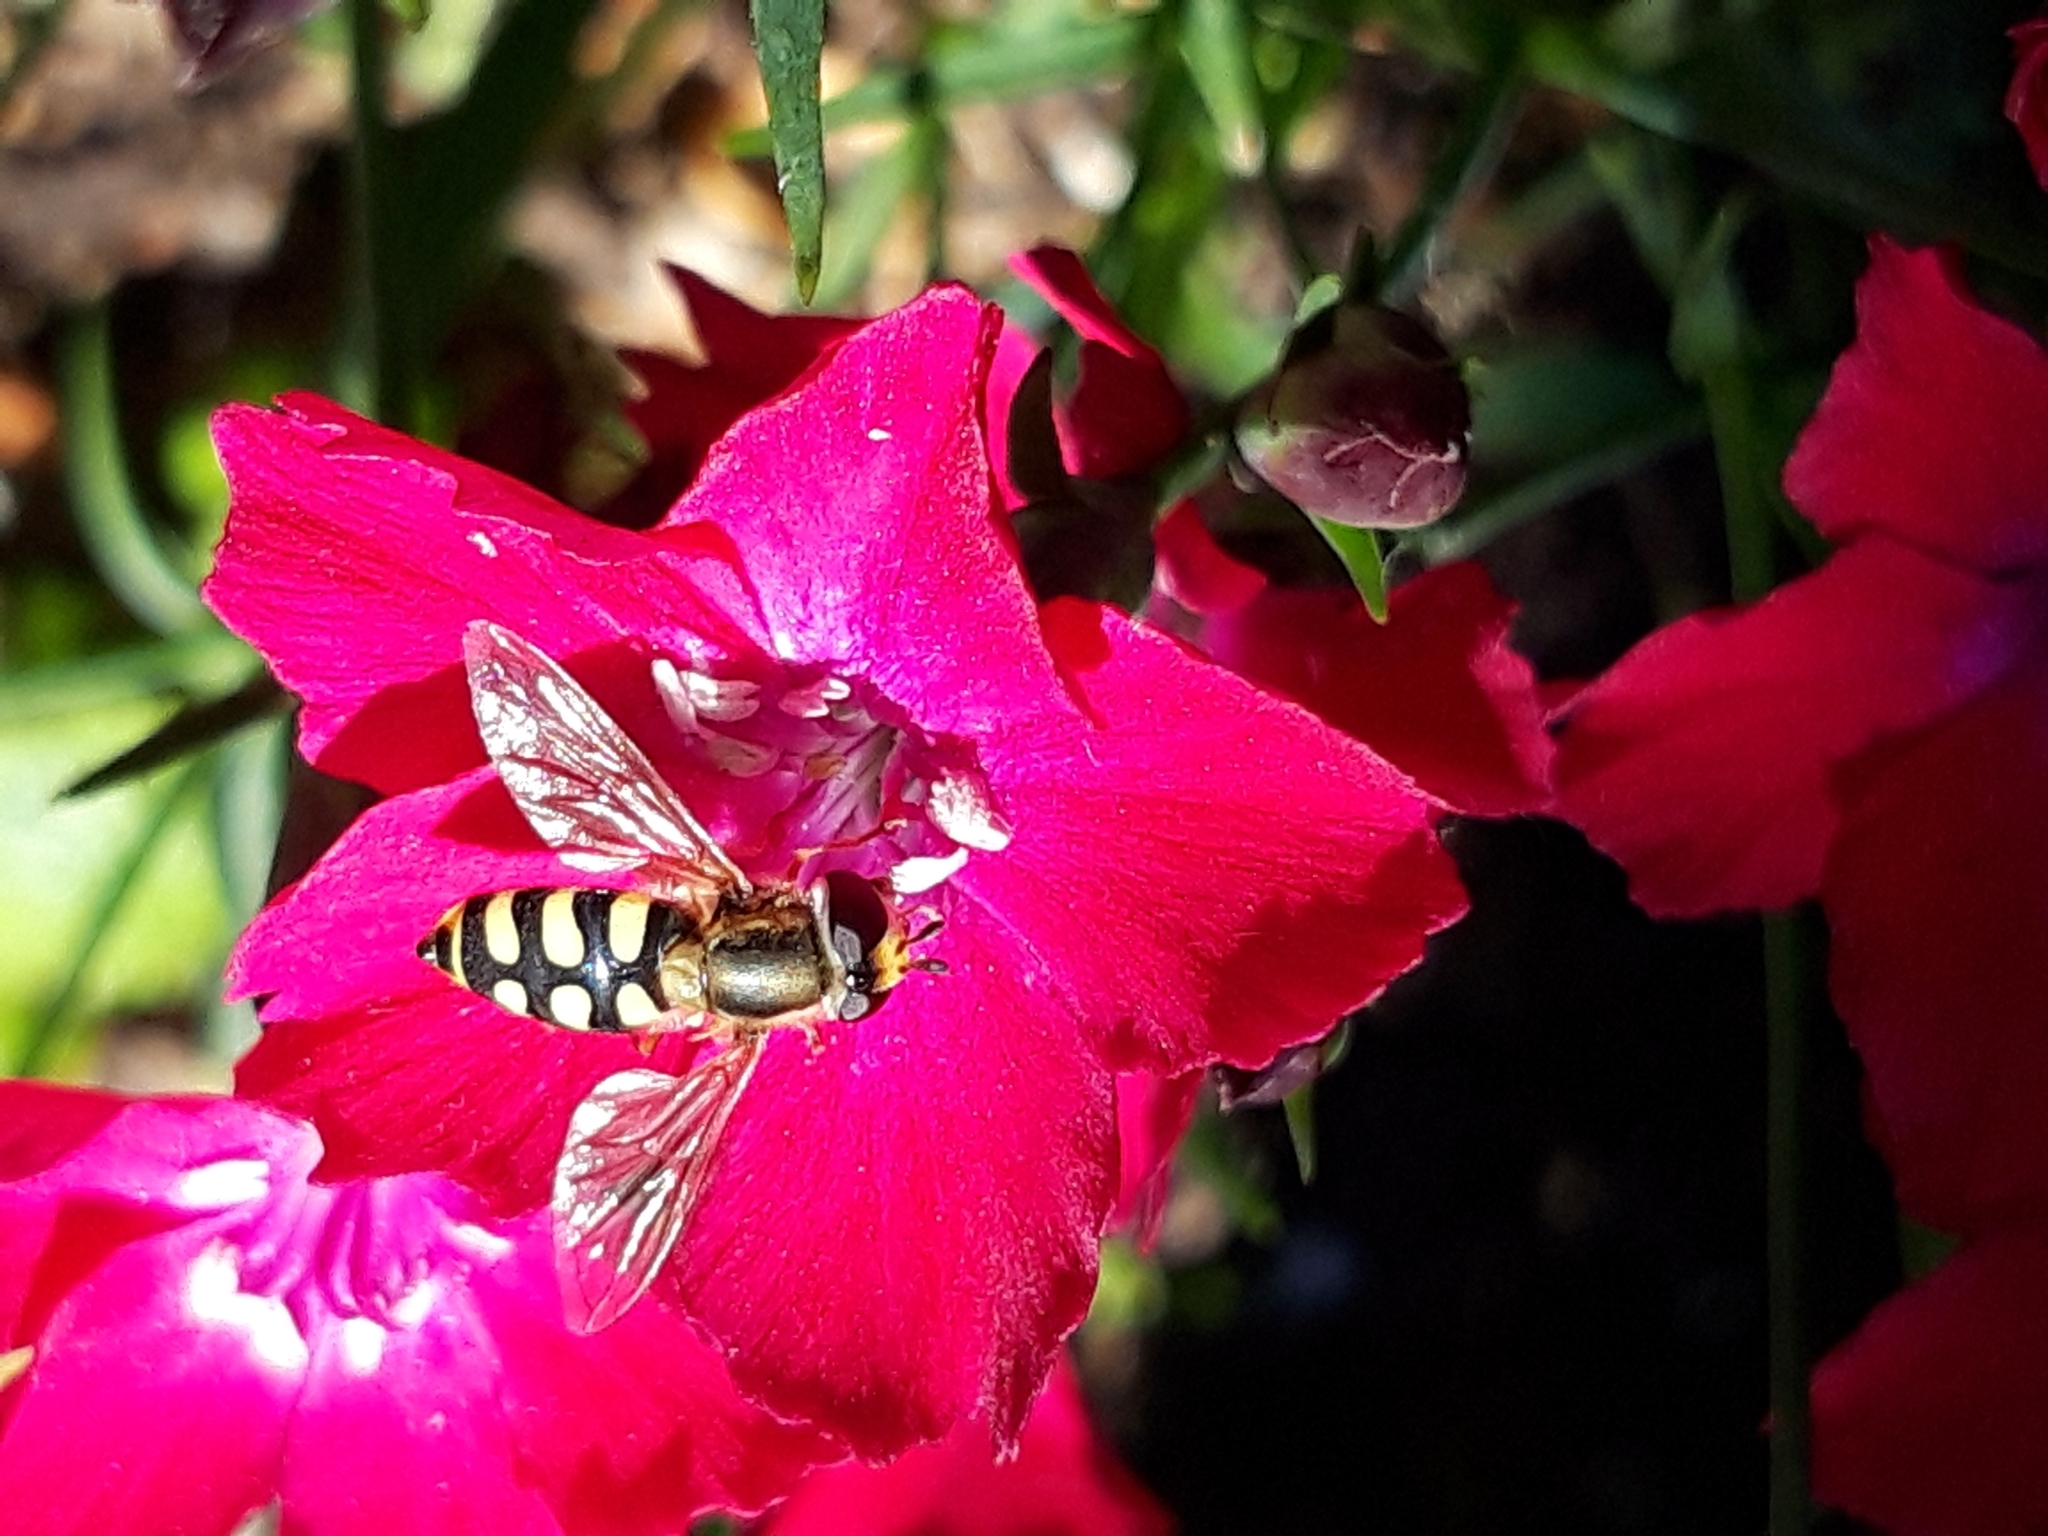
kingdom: Animalia
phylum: Arthropoda
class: Insecta
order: Diptera
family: Syrphidae
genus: Eupeodes
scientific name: Eupeodes corollae
